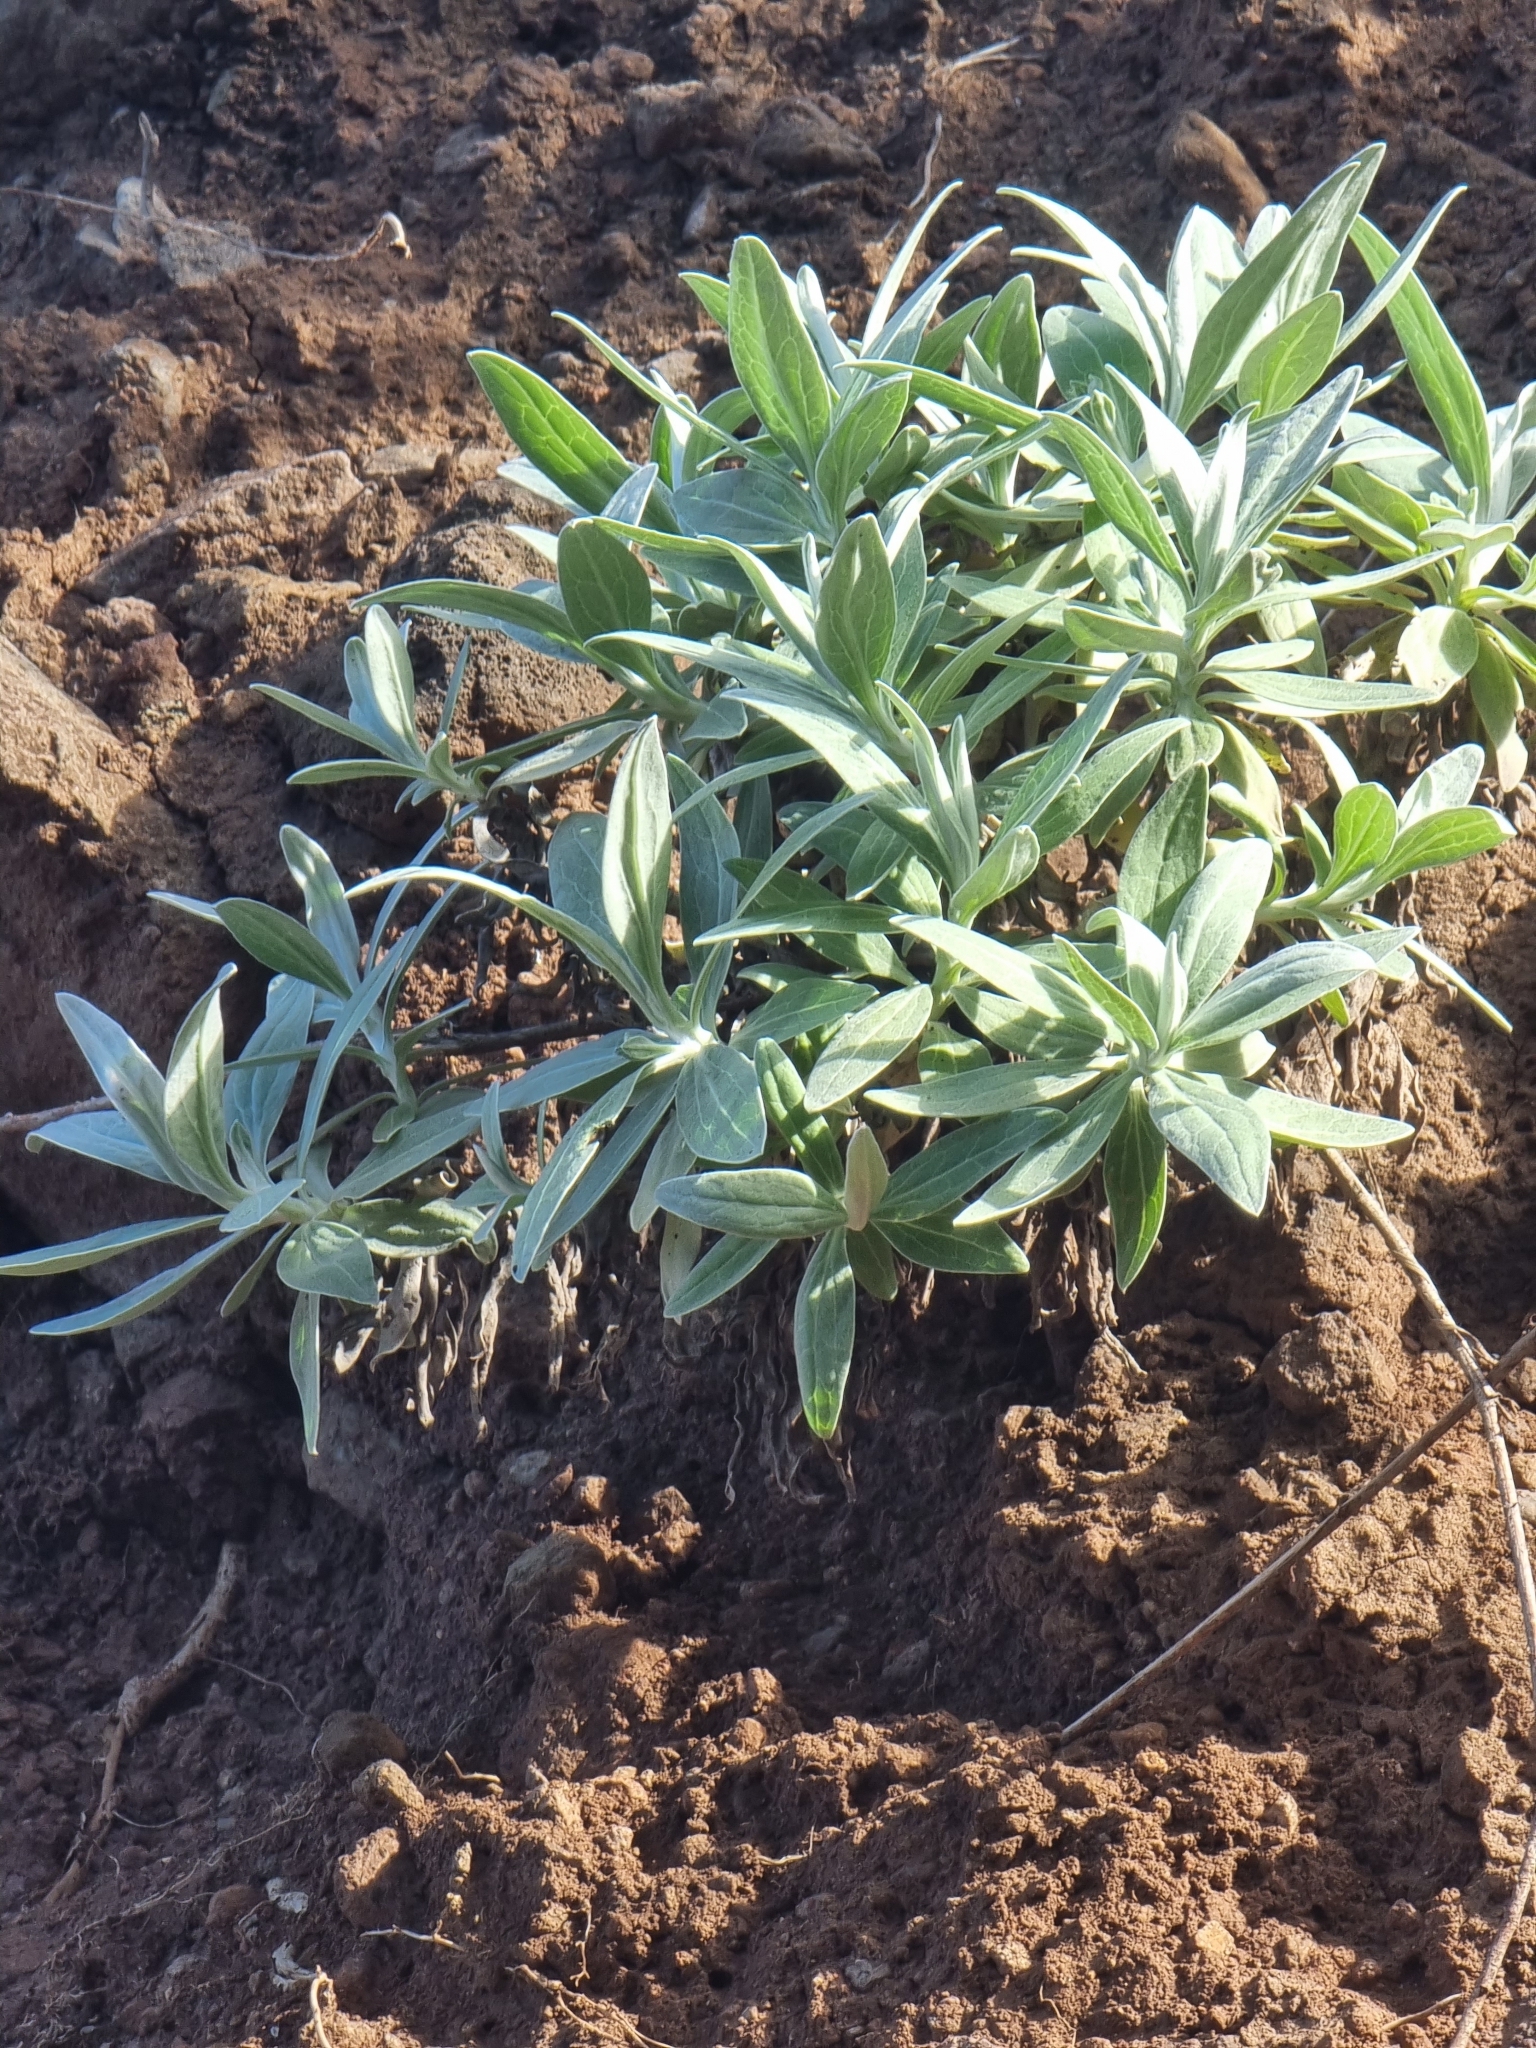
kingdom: Plantae
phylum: Tracheophyta
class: Magnoliopsida
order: Asterales
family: Asteraceae
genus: Helichrysum
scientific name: Helichrysum melaleucum
